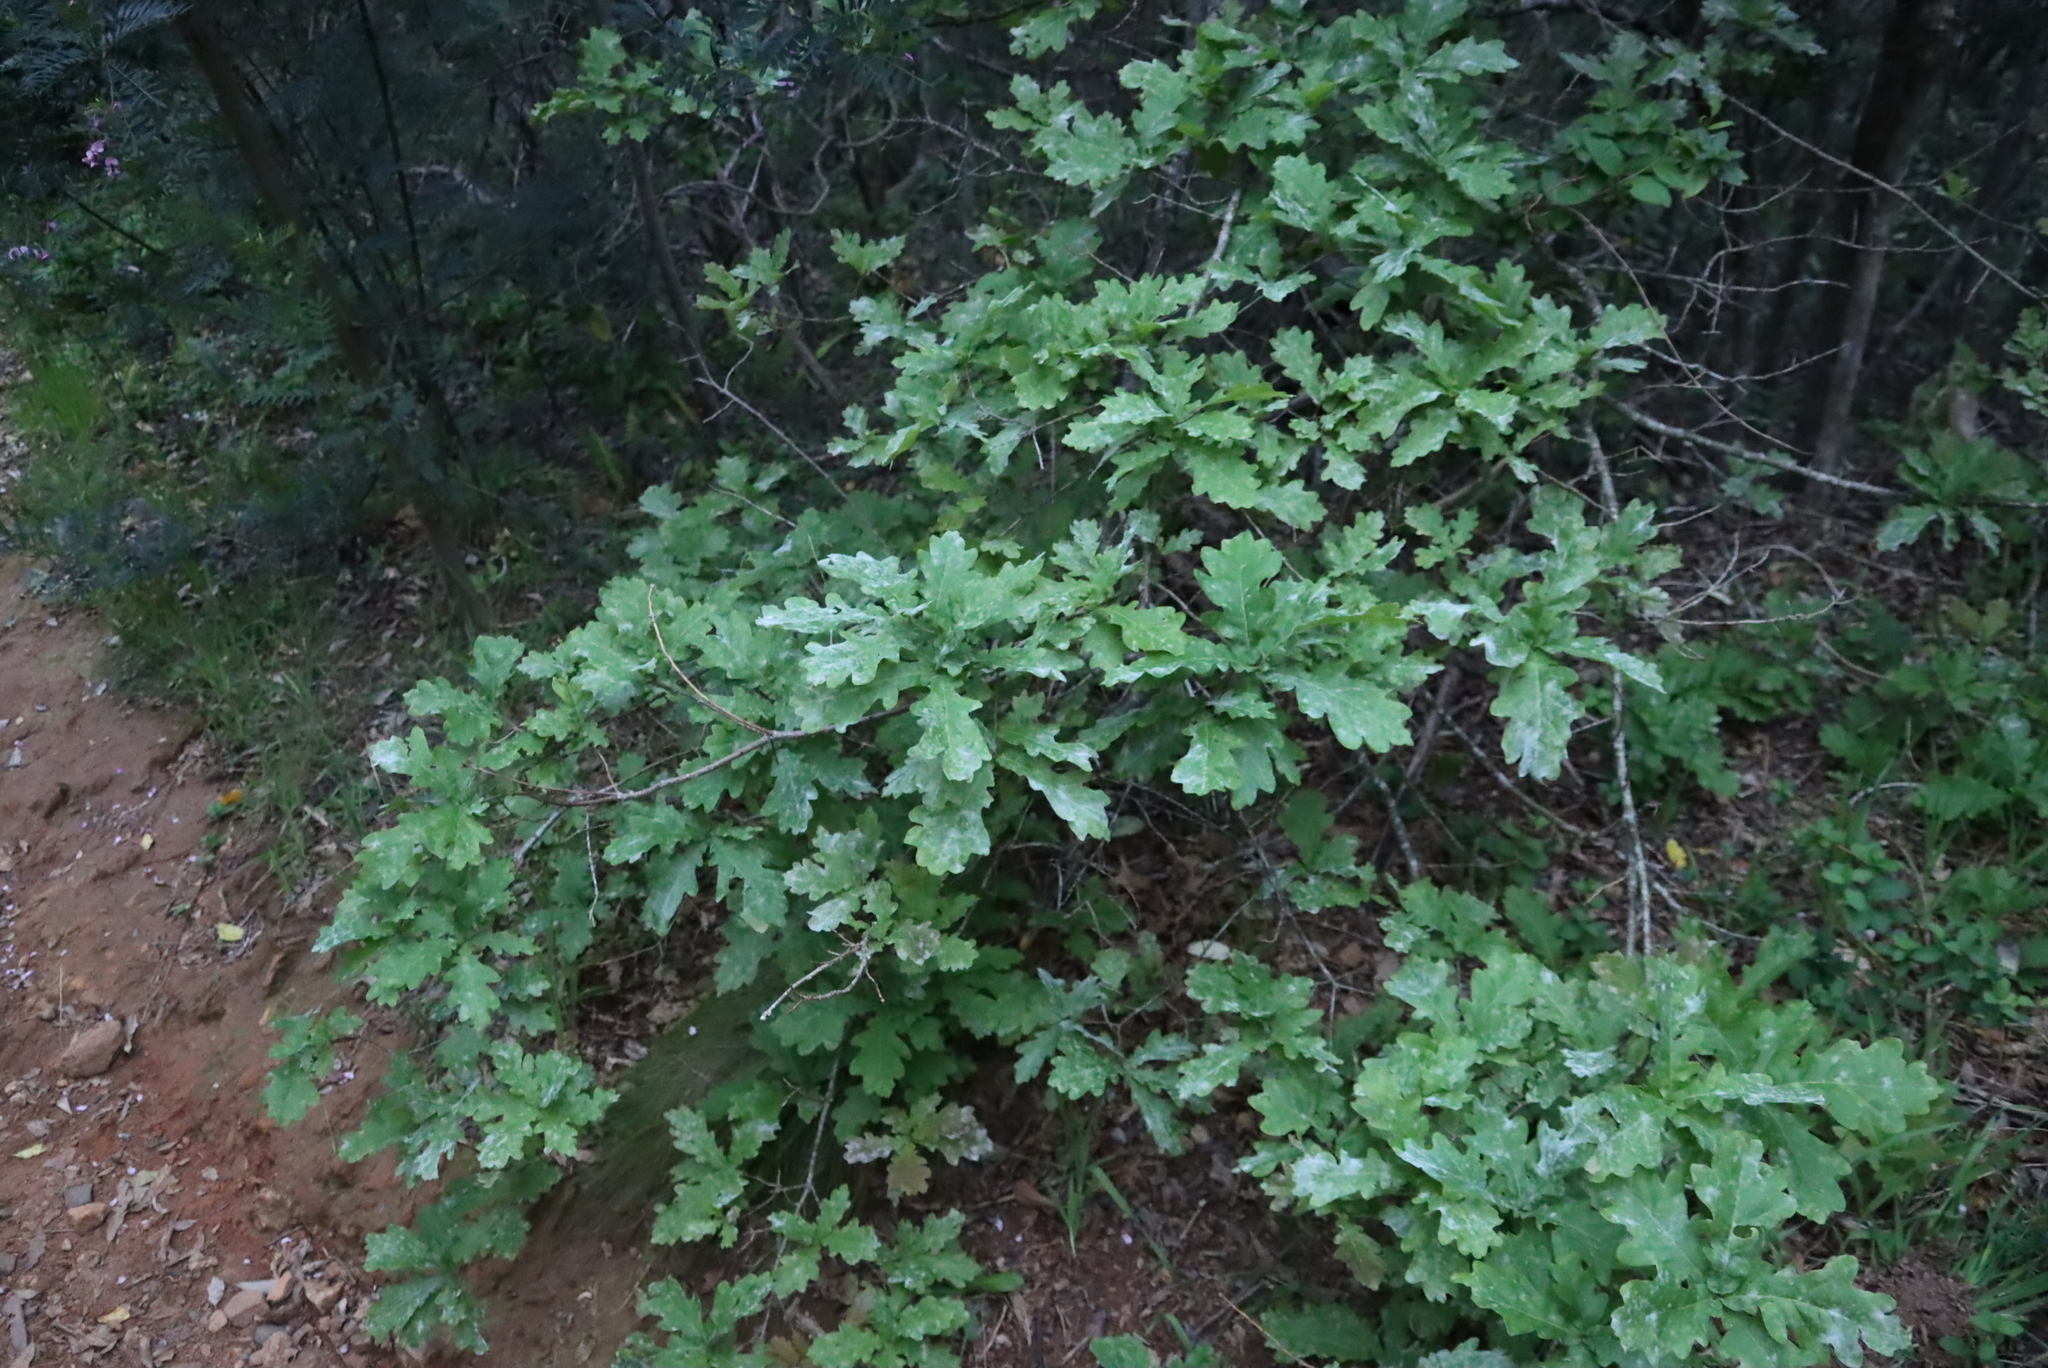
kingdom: Plantae
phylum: Tracheophyta
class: Magnoliopsida
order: Fagales
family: Fagaceae
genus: Quercus
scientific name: Quercus robur
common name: Pedunculate oak
